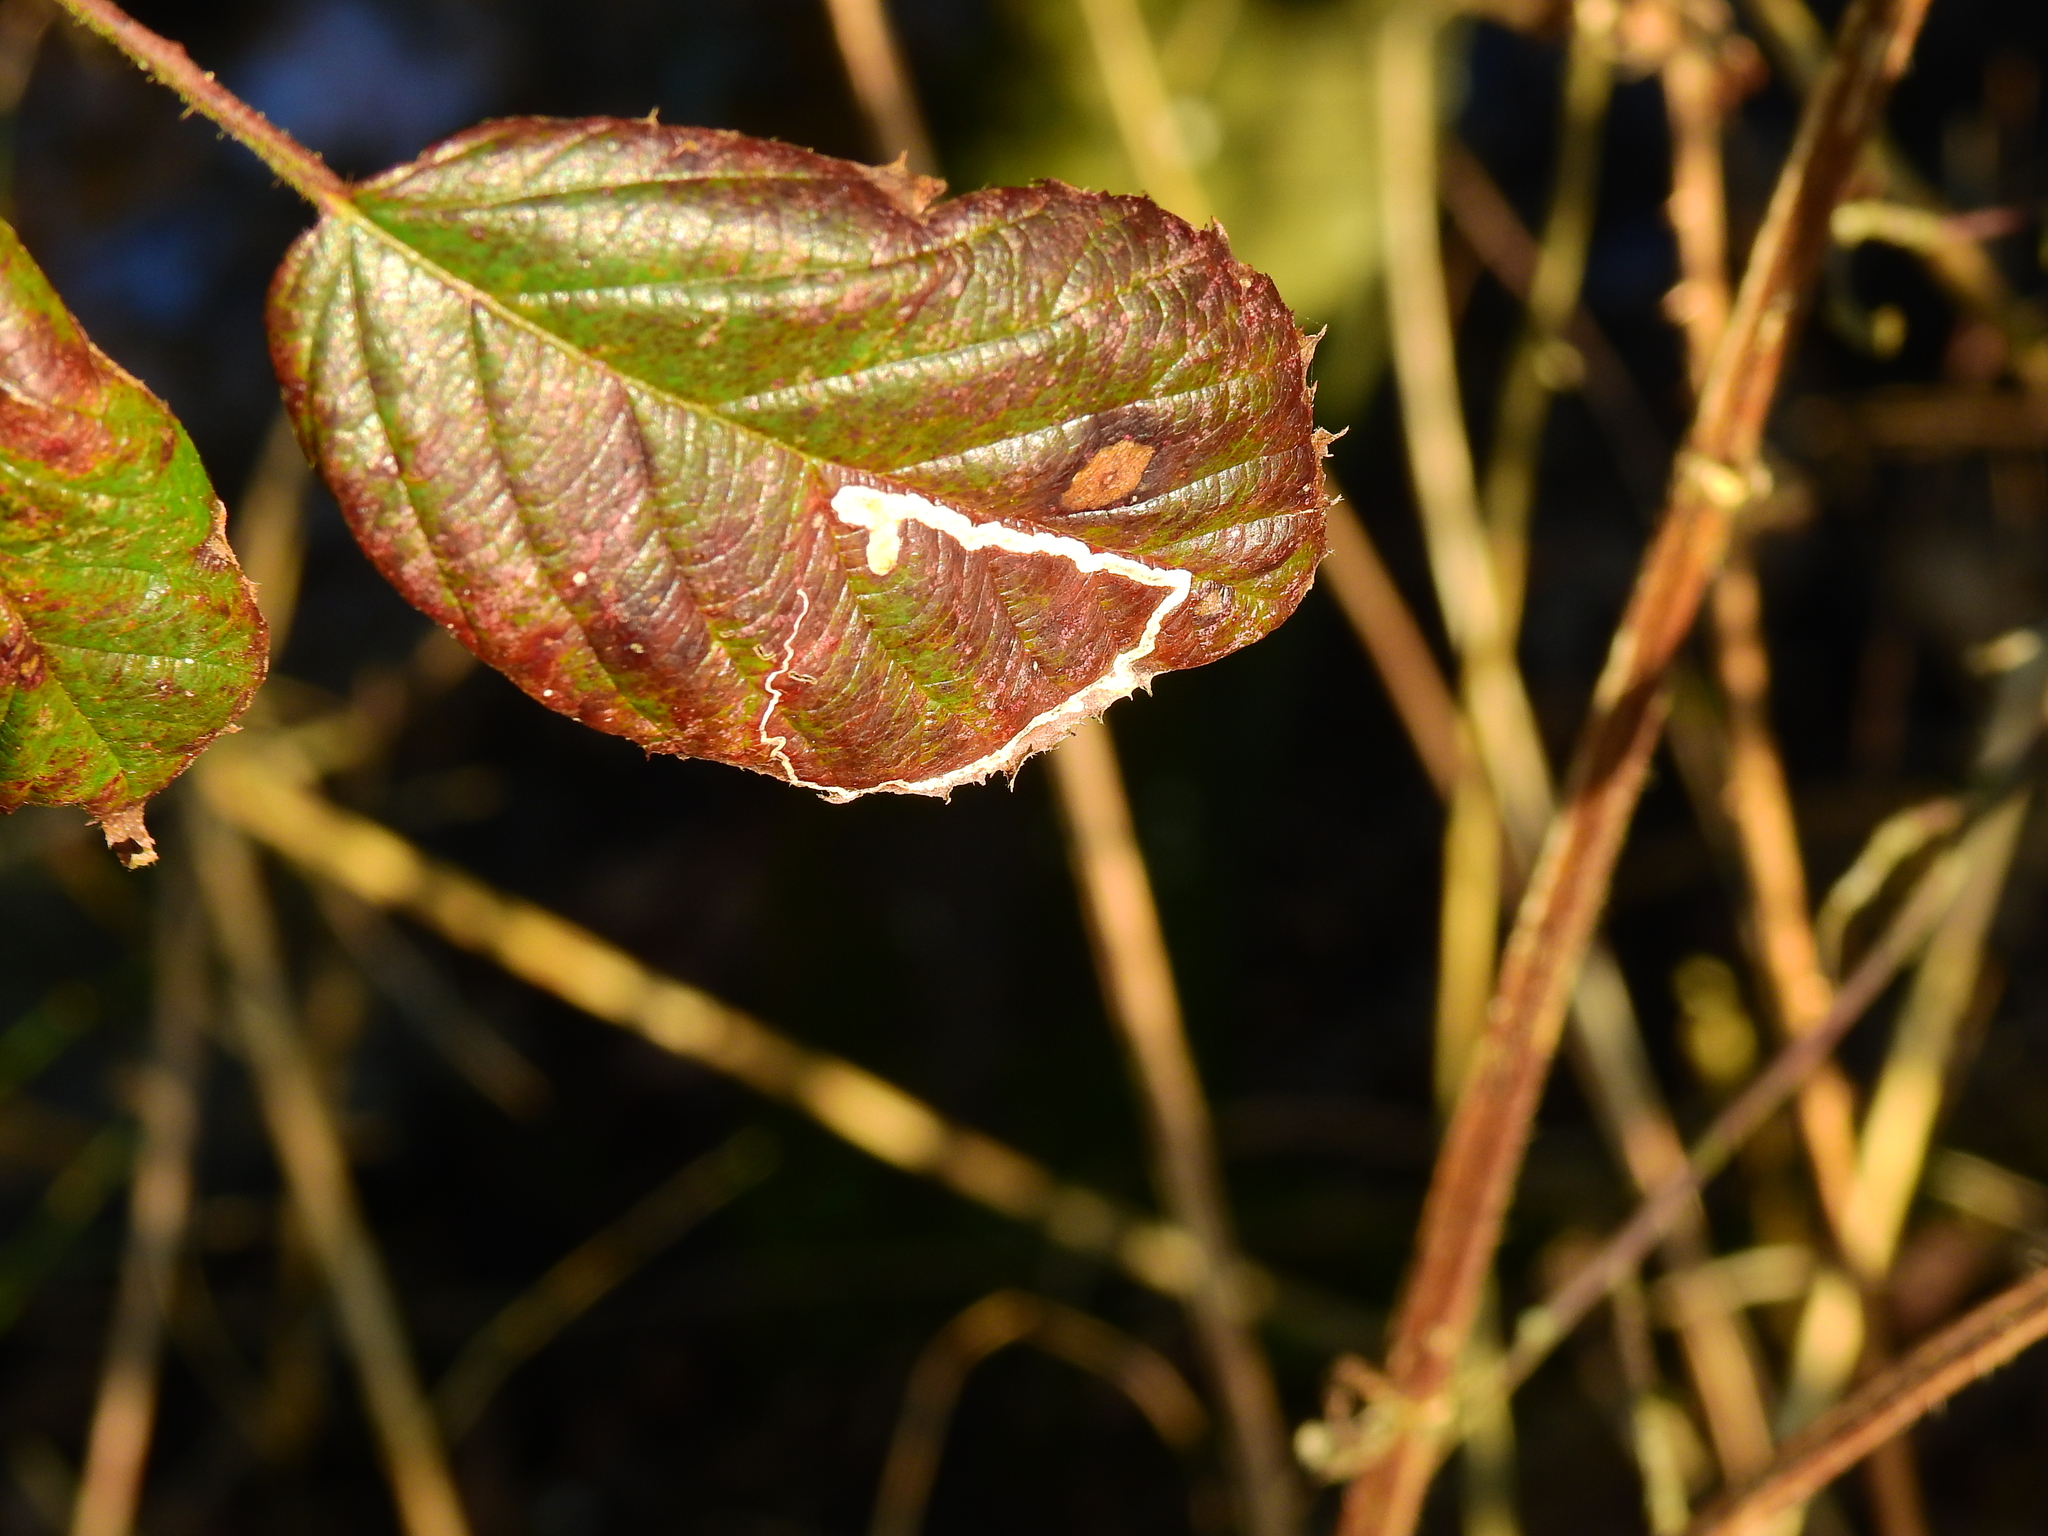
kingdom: Animalia
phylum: Arthropoda
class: Insecta
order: Lepidoptera
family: Nepticulidae
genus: Stigmella
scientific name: Stigmella aurella
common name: Golden pigmy
